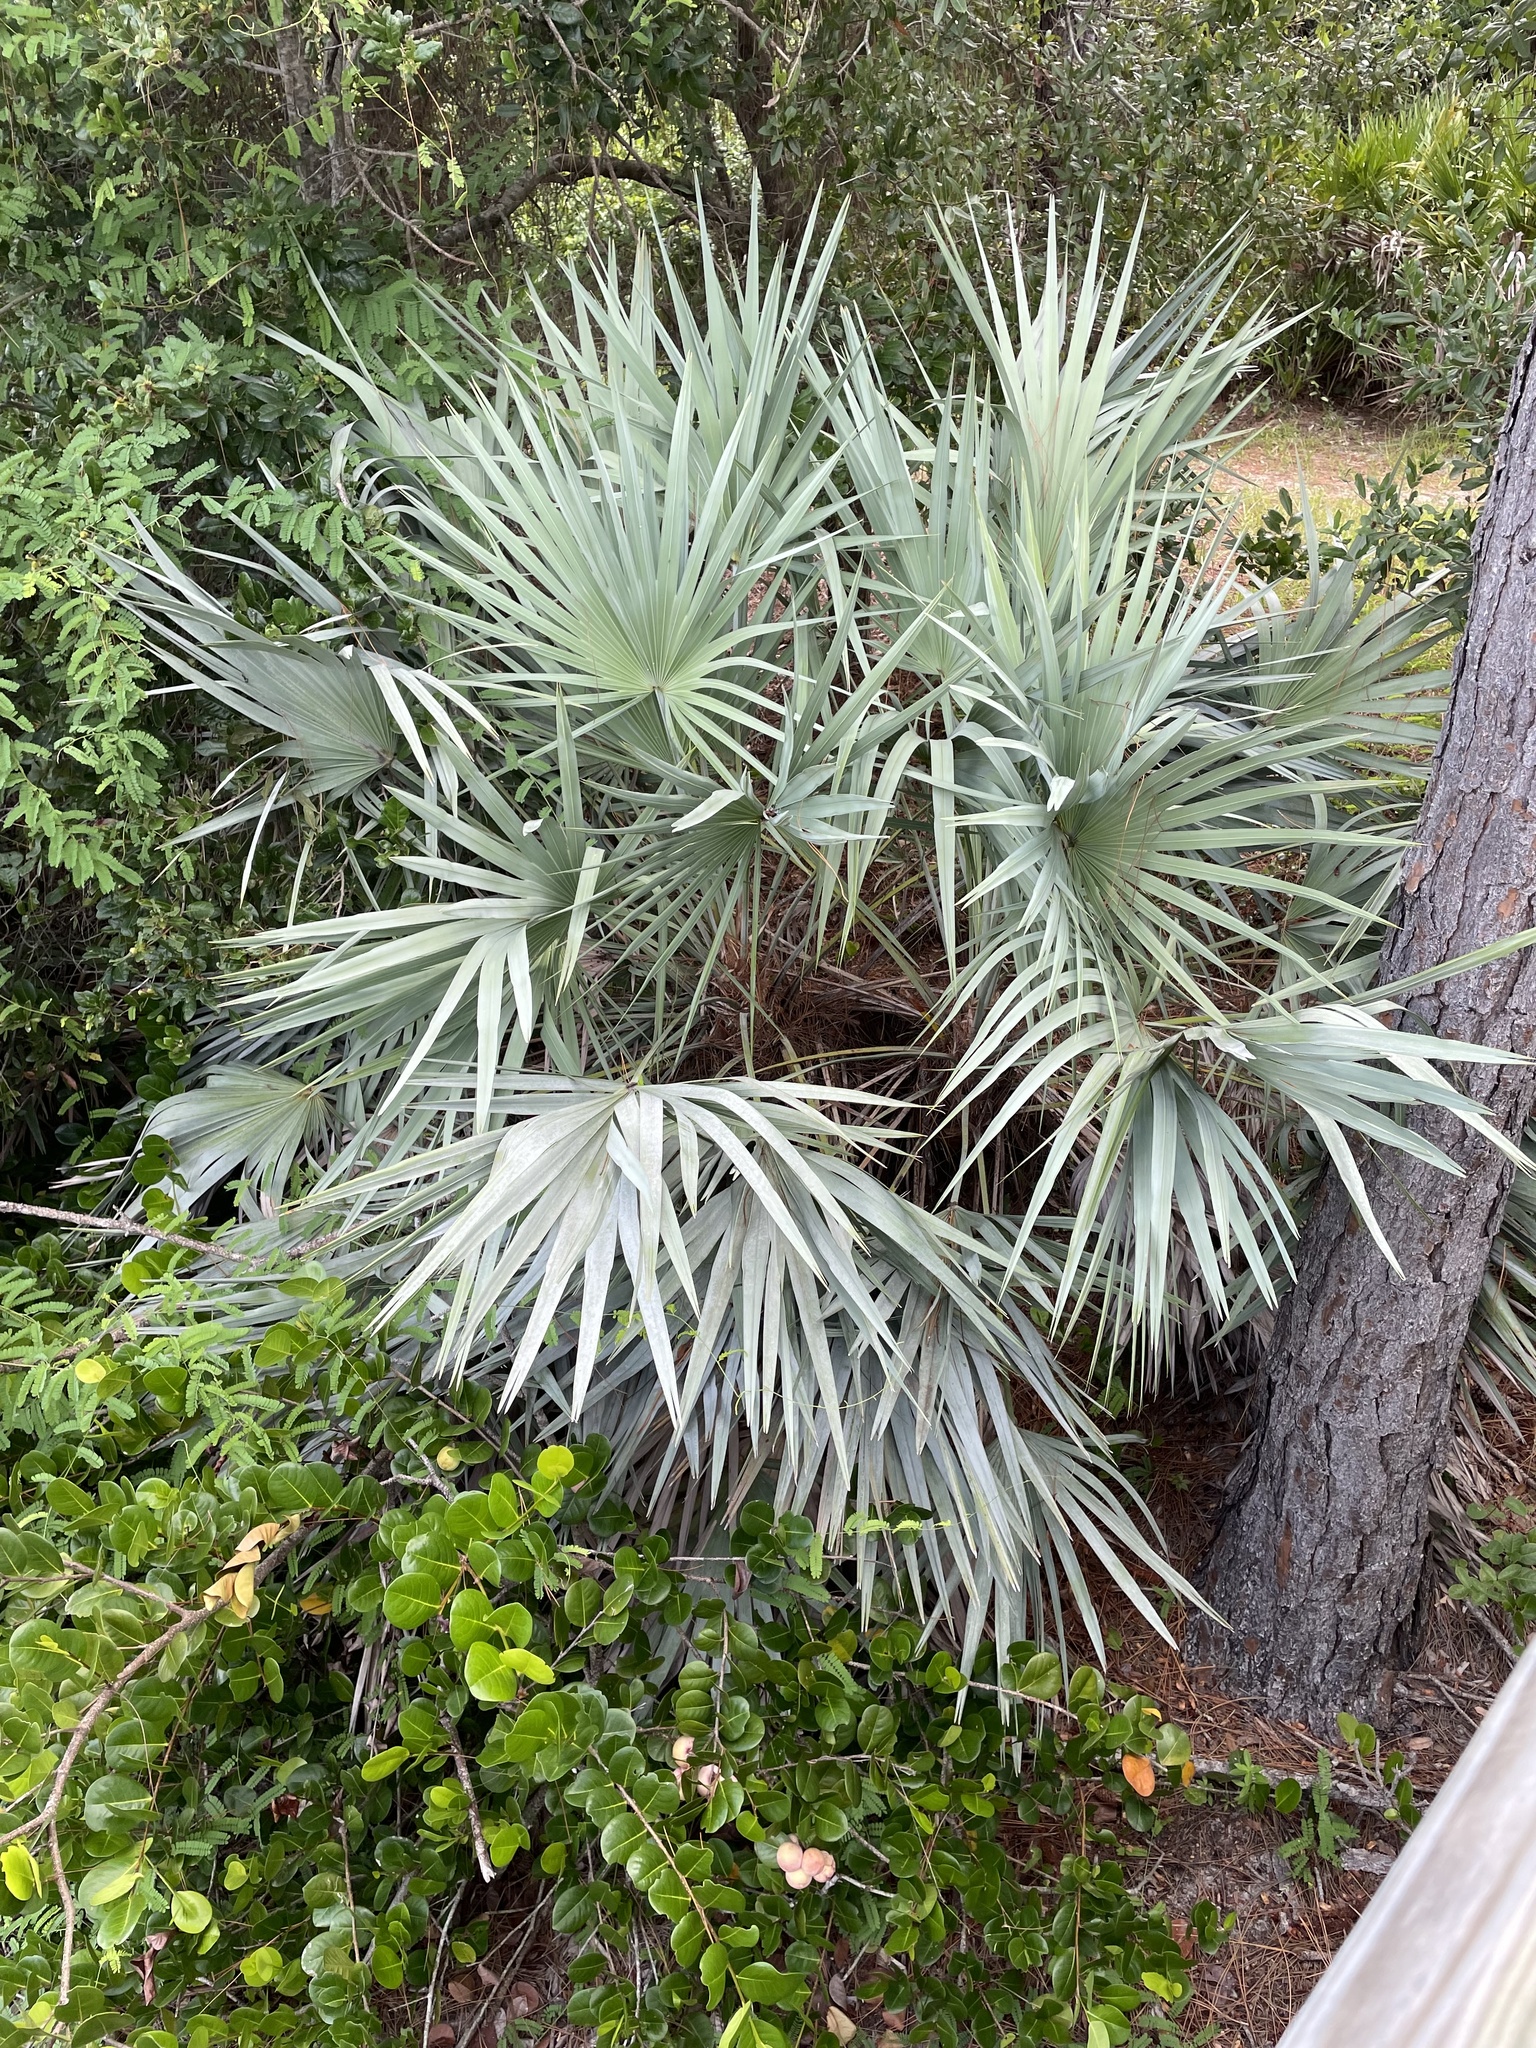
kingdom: Plantae
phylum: Tracheophyta
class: Liliopsida
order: Arecales
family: Arecaceae
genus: Serenoa
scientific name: Serenoa repens
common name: Saw-palmetto
